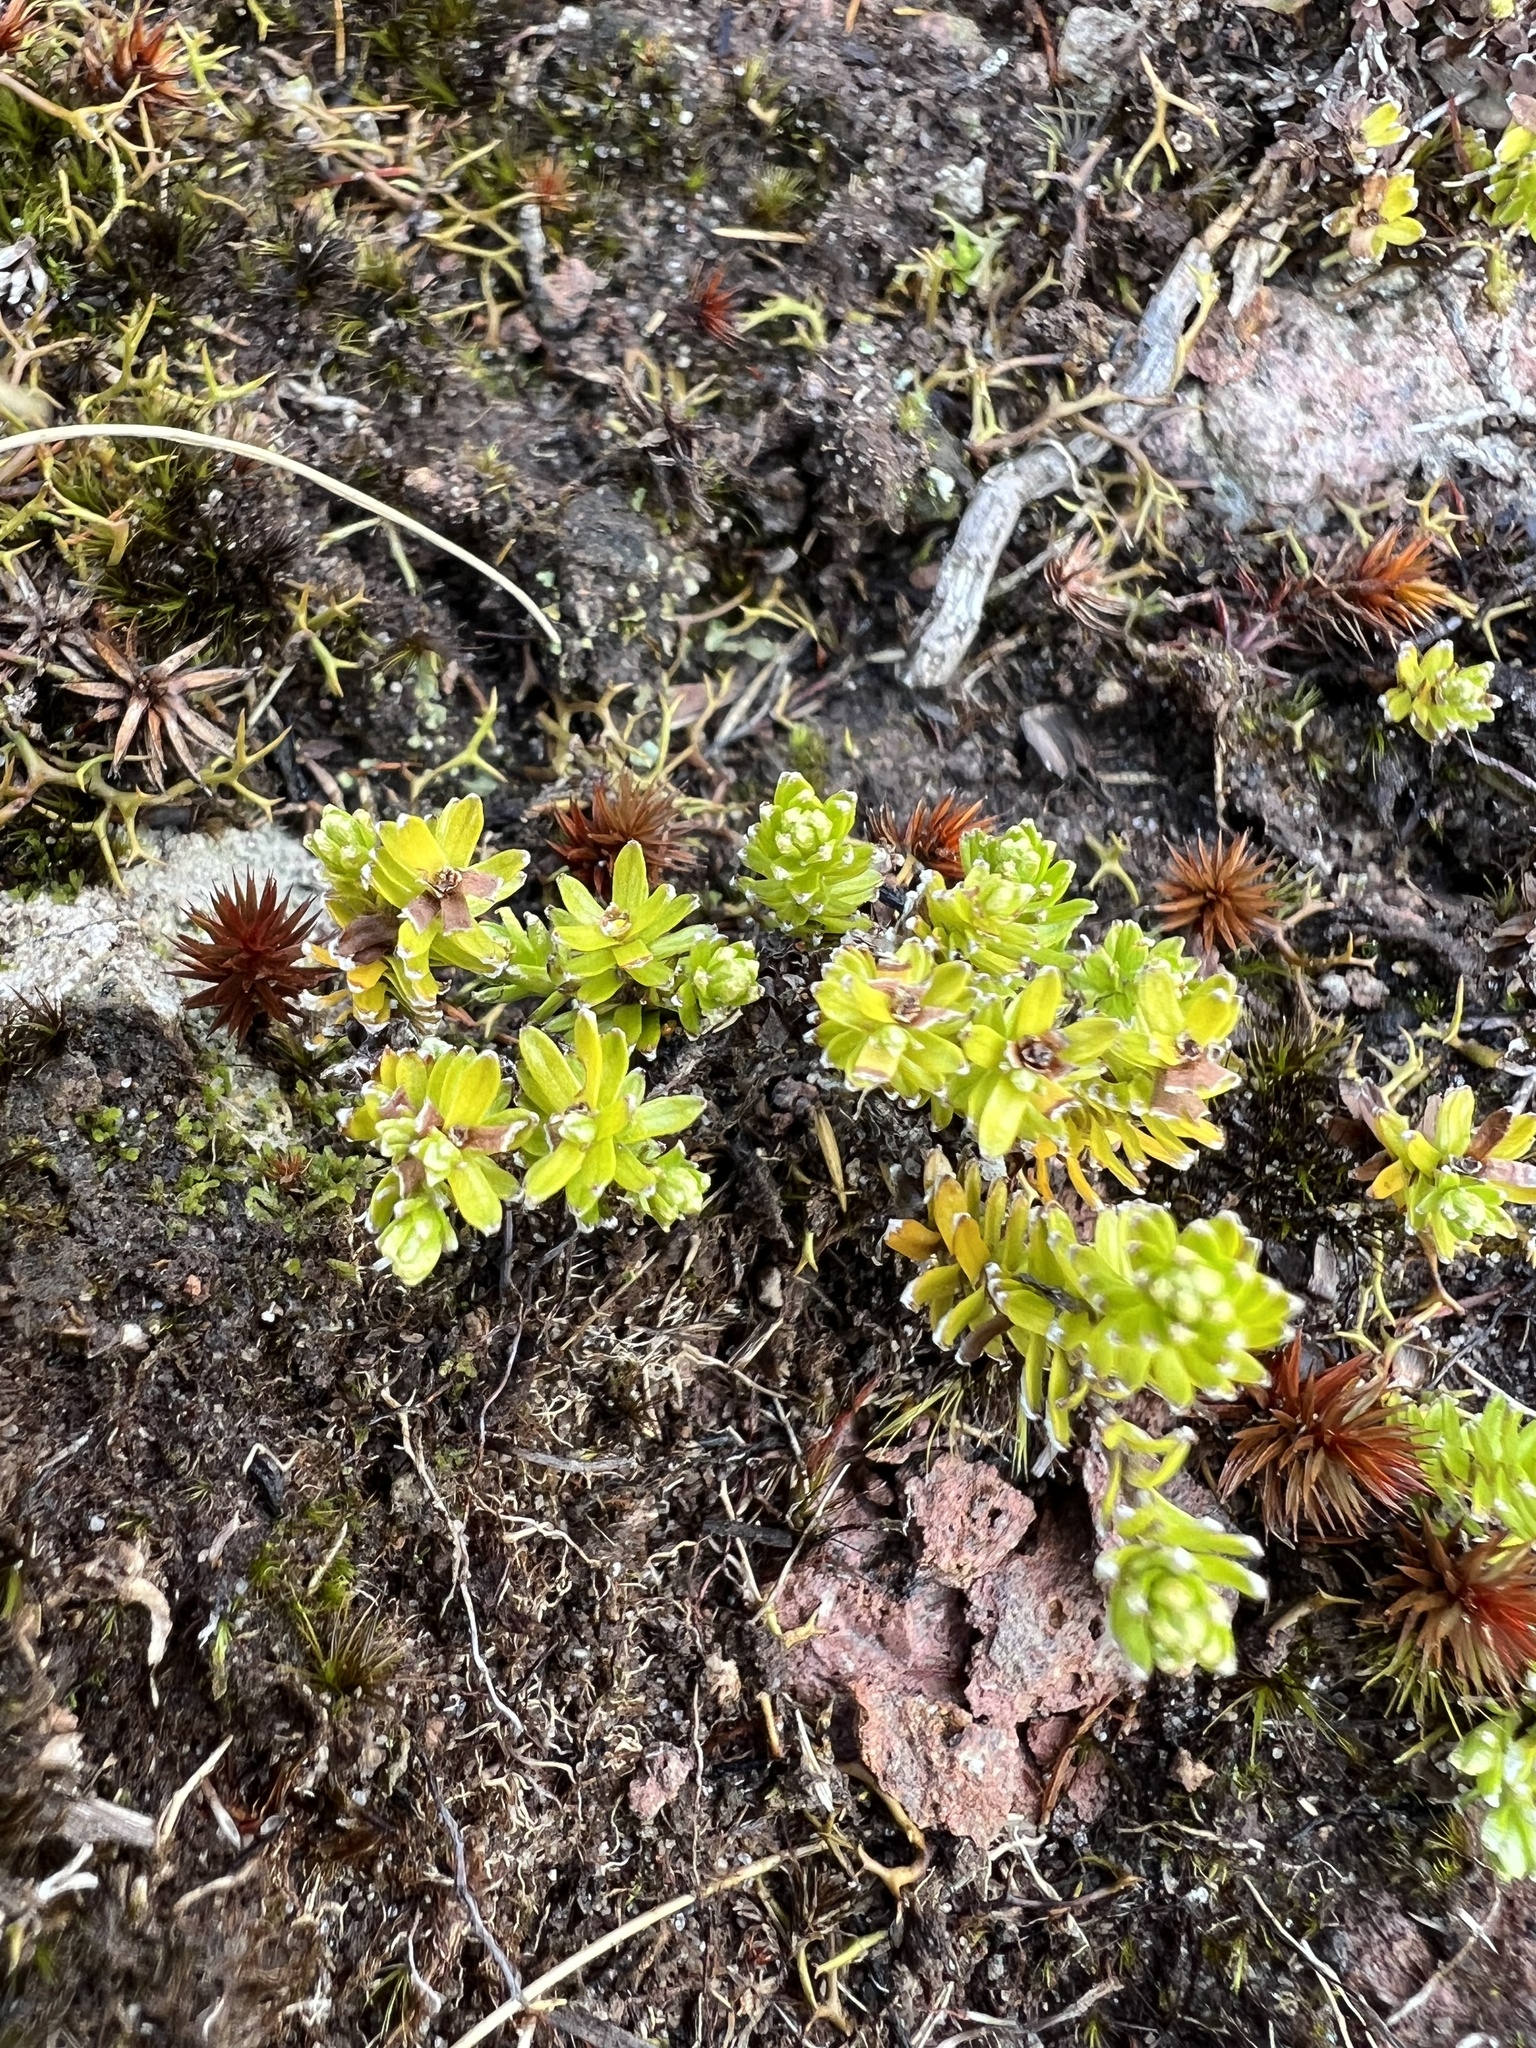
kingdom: Plantae
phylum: Tracheophyta
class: Magnoliopsida
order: Asterales
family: Asteraceae
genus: Raoulia
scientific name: Raoulia glabra
